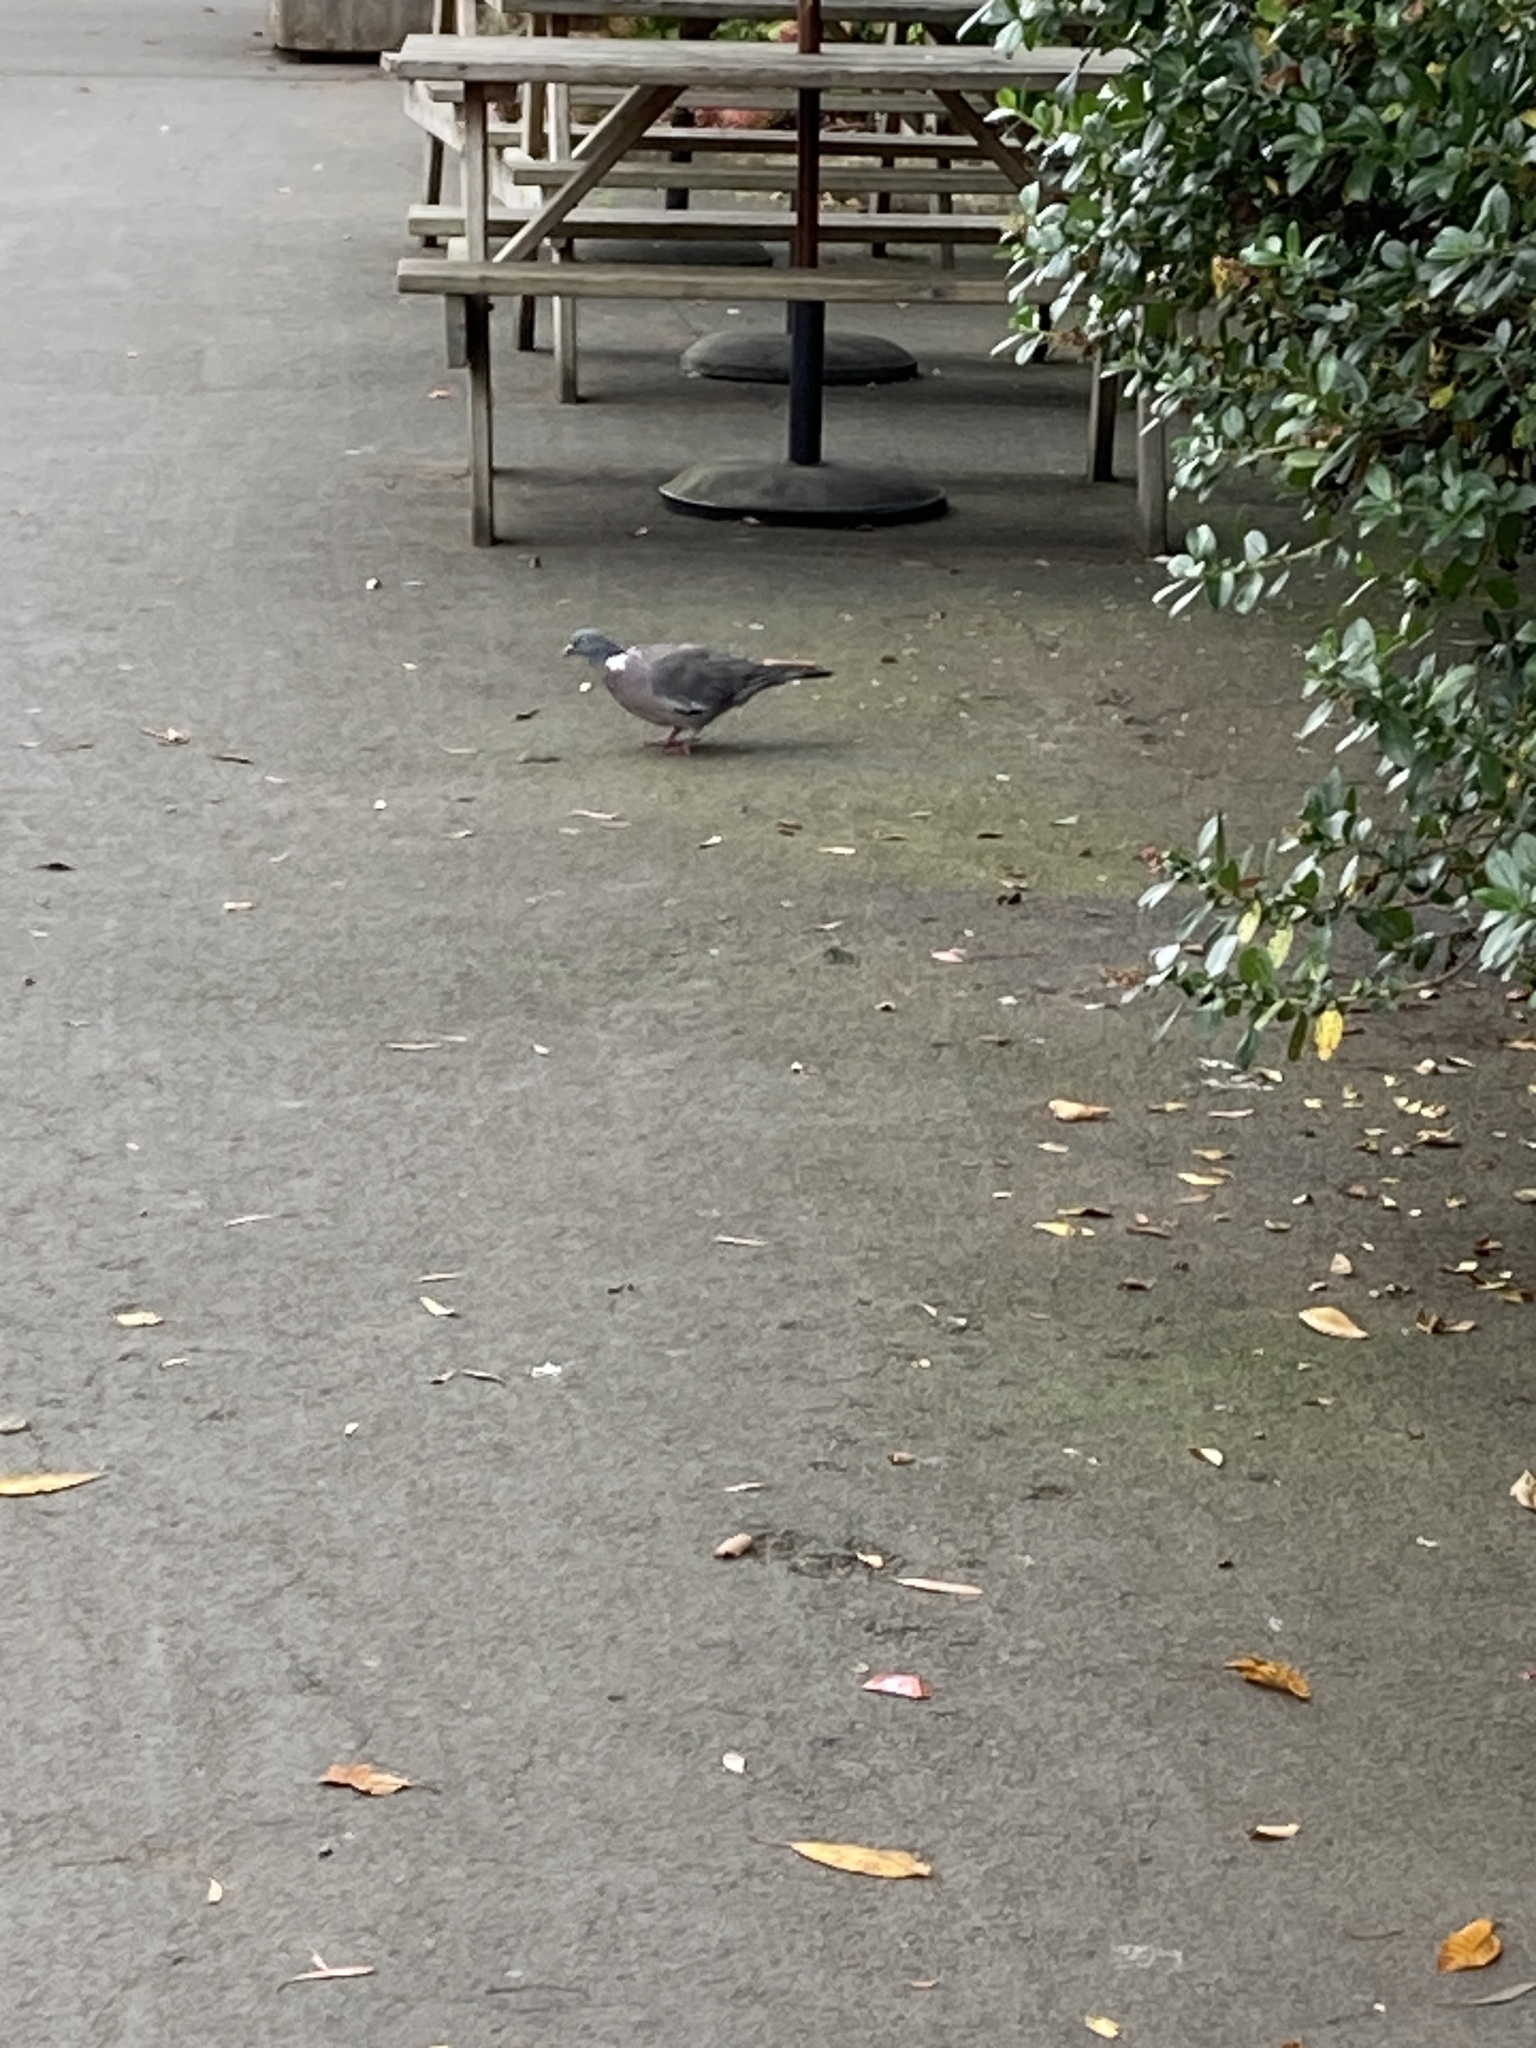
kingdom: Animalia
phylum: Chordata
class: Aves
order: Columbiformes
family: Columbidae
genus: Columba
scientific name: Columba palumbus
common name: Common wood pigeon
